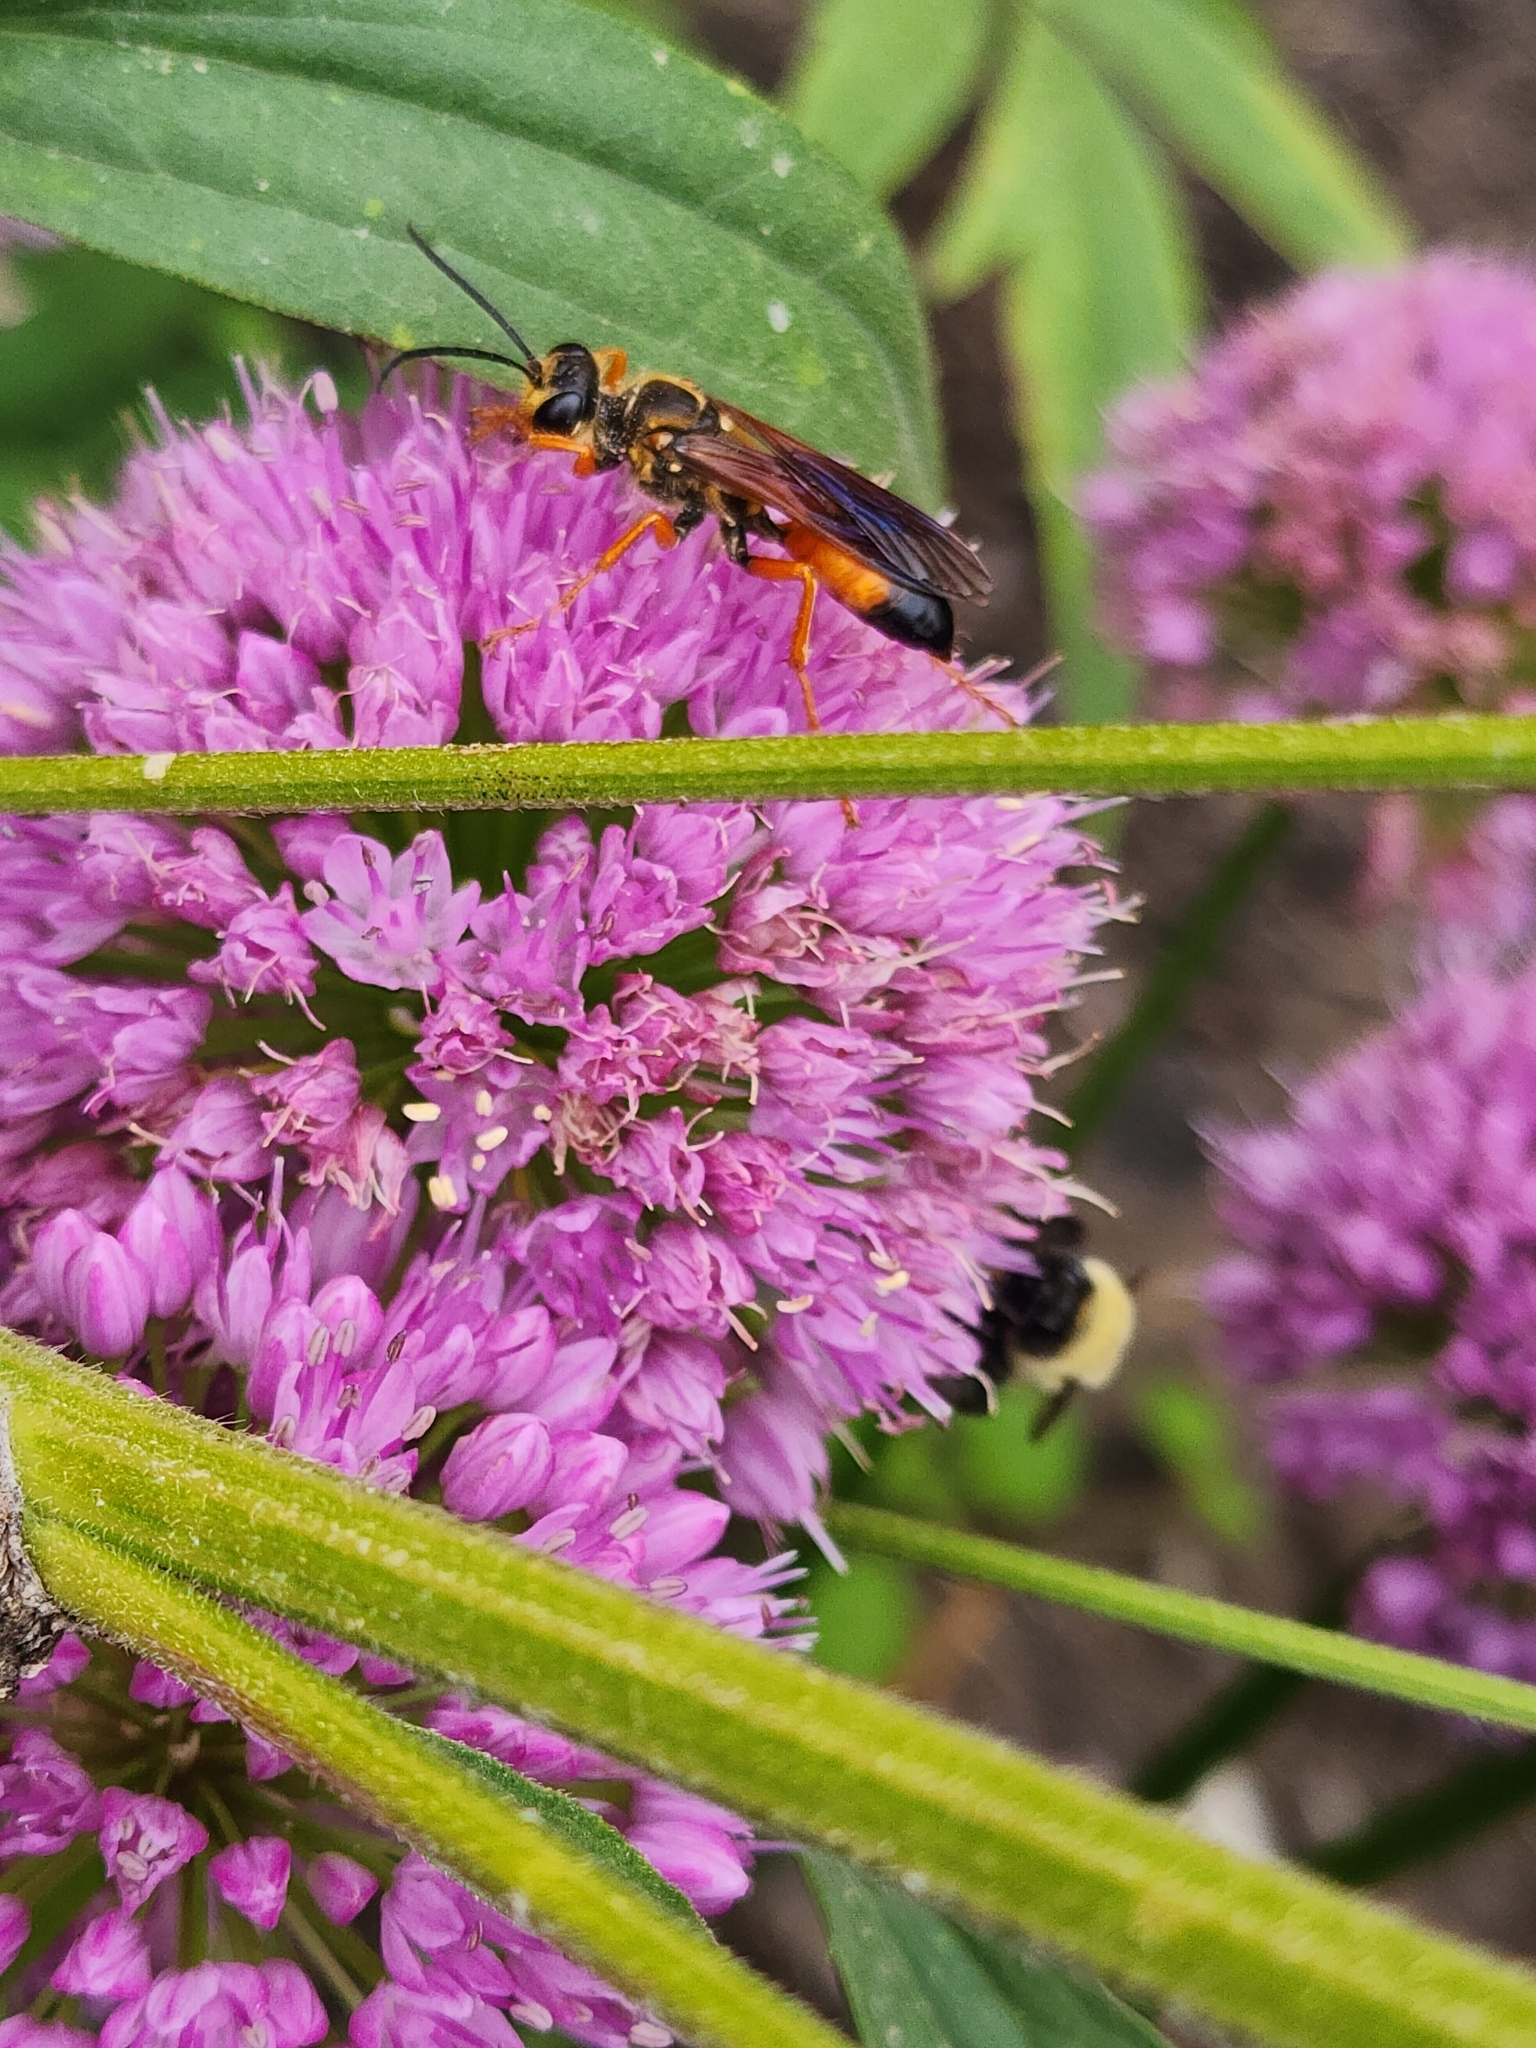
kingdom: Animalia
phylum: Arthropoda
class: Insecta
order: Hymenoptera
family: Sphecidae
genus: Sphex
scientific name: Sphex ichneumoneus
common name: Great golden digger wasp
